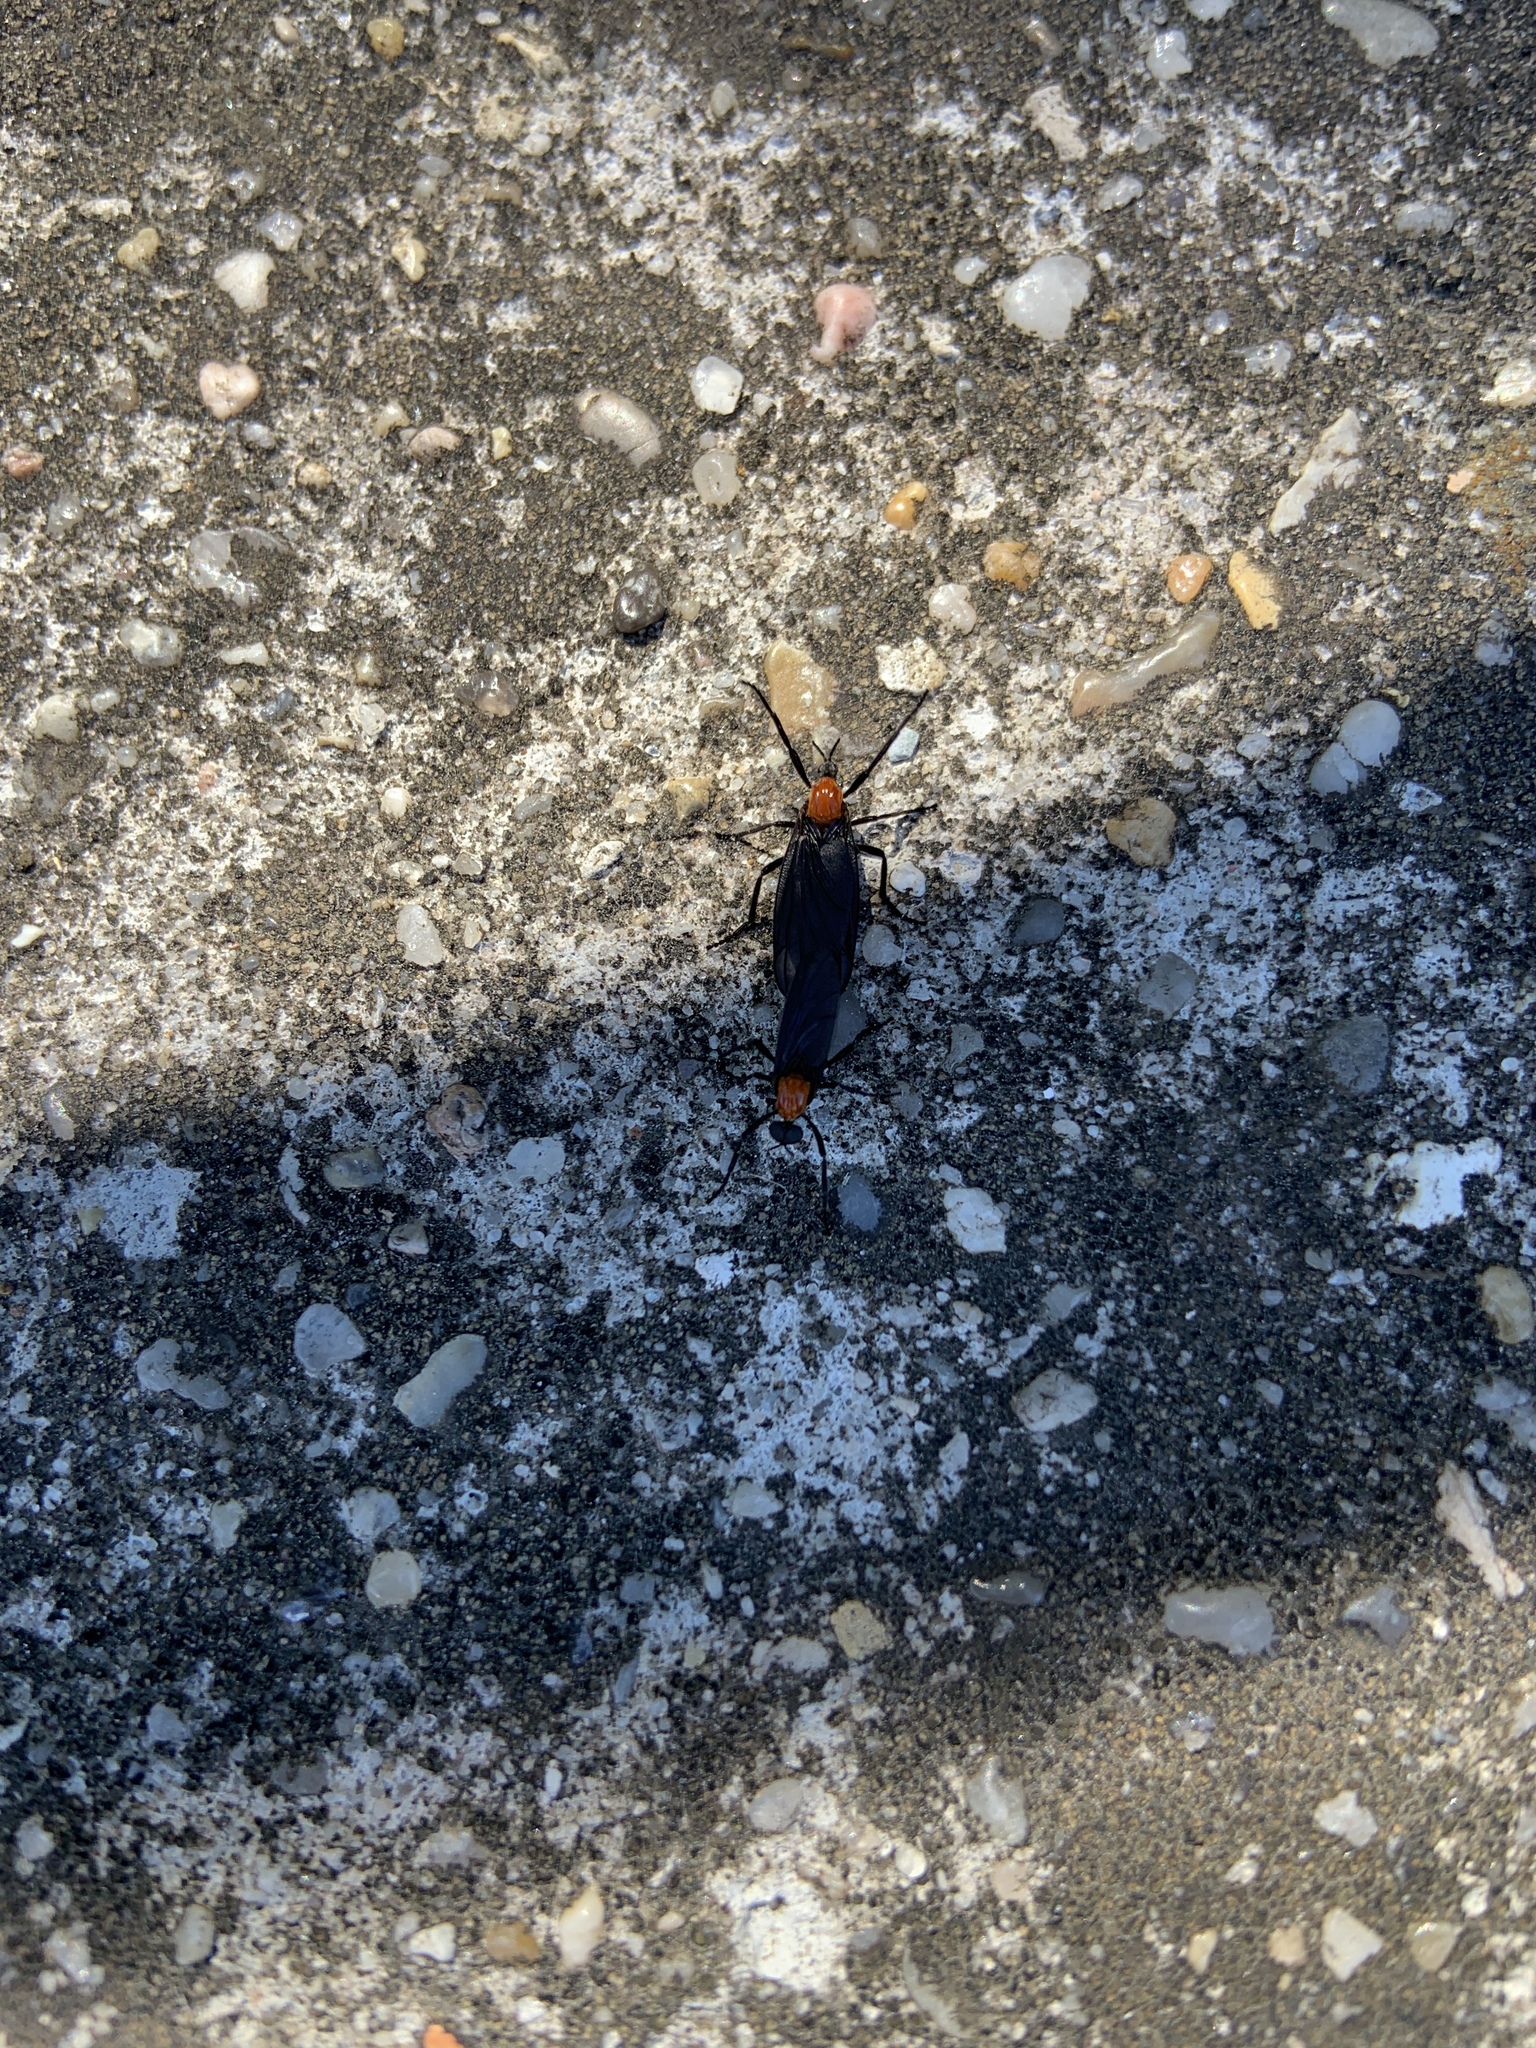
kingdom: Animalia
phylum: Arthropoda
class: Insecta
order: Diptera
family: Bibionidae
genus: Plecia
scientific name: Plecia nearctica
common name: March fly
